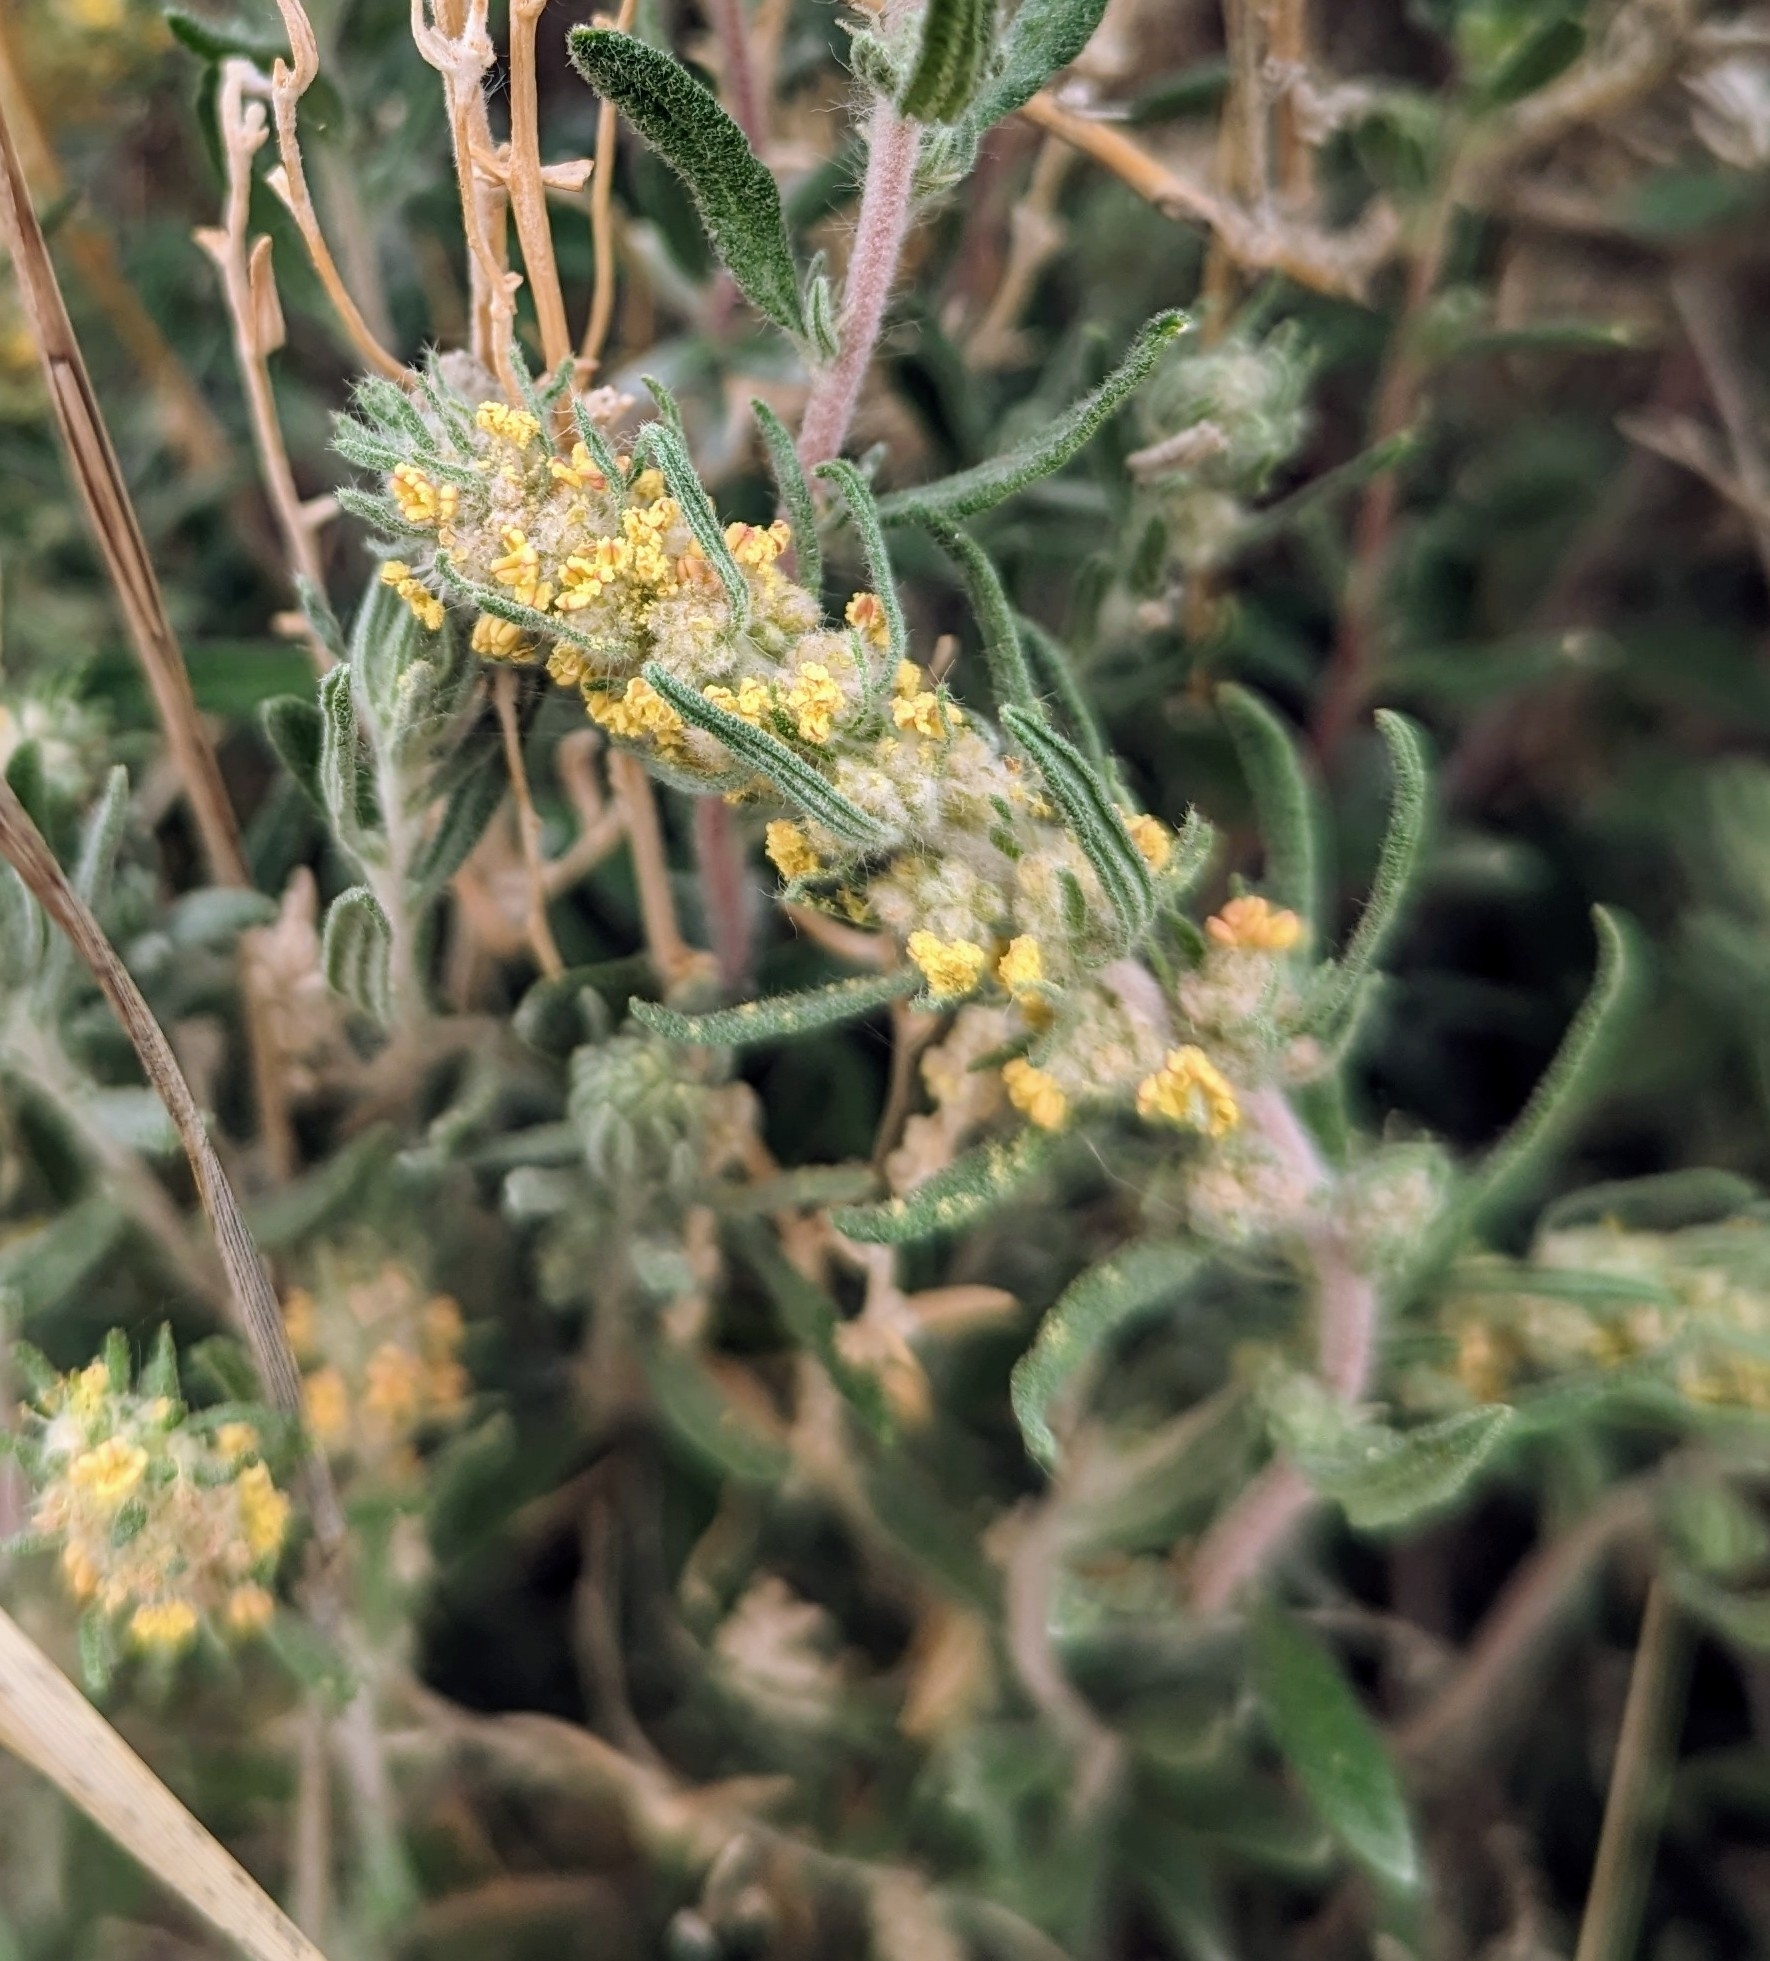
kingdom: Plantae
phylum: Tracheophyta
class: Magnoliopsida
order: Caryophyllales
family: Amaranthaceae
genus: Krascheninnikovia
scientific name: Krascheninnikovia lanata
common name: Winterfat
